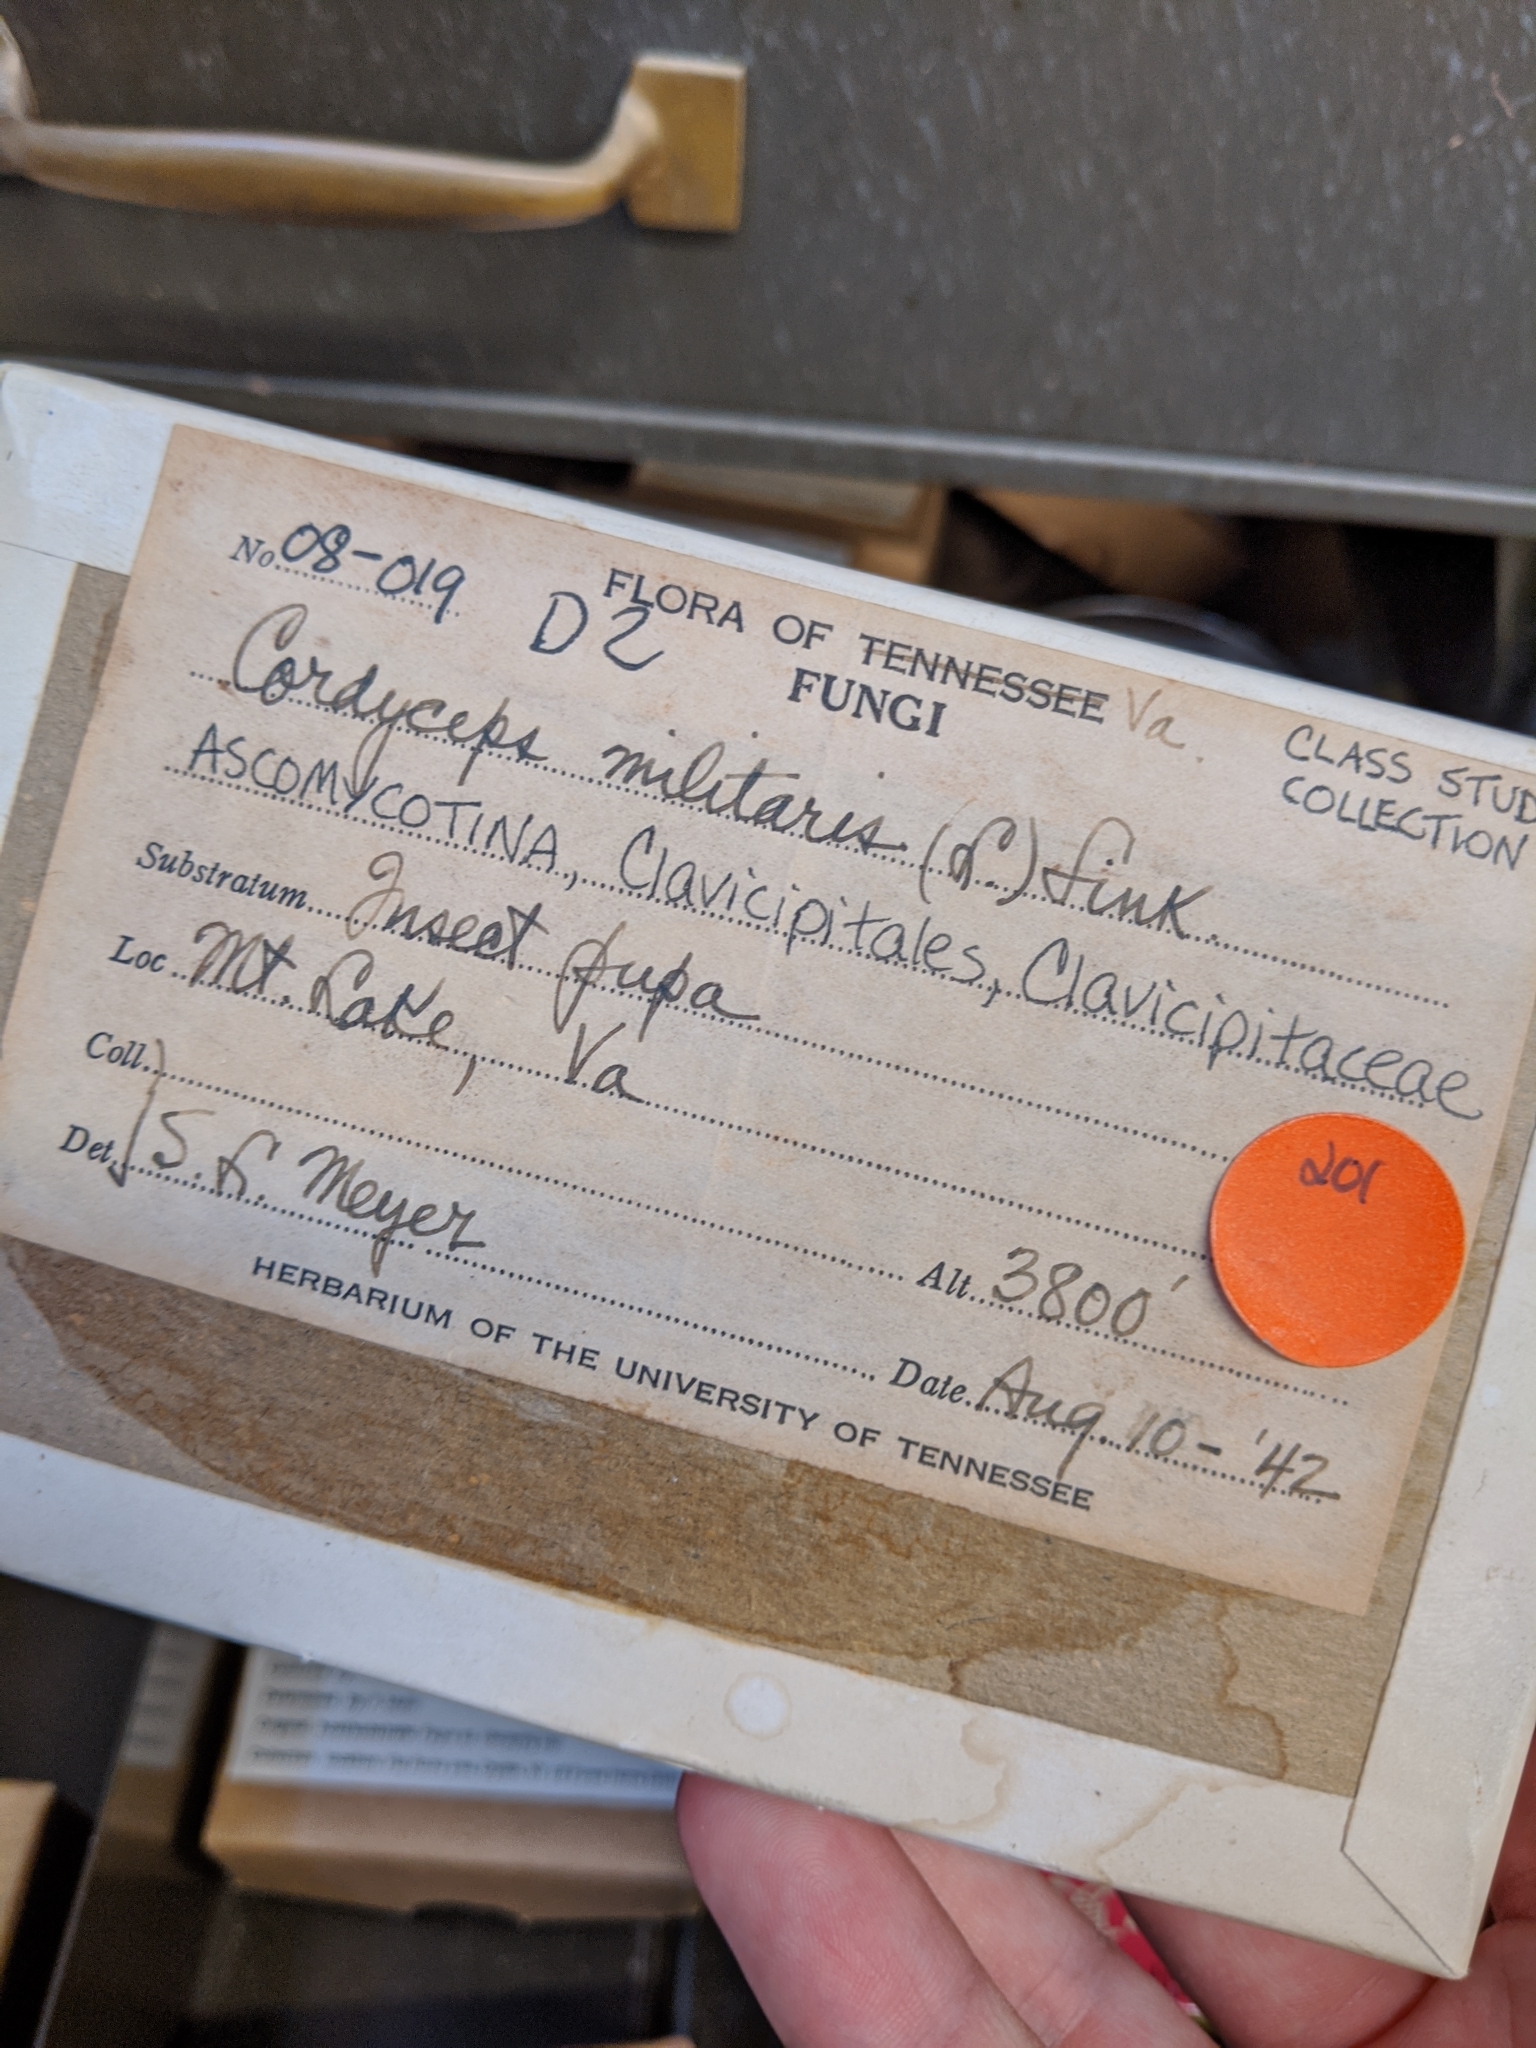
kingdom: Fungi
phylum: Ascomycota
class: Sordariomycetes
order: Hypocreales
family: Cordycipitaceae
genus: Cordyceps
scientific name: Cordyceps militaris
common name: Scarlet caterpillar fungus
